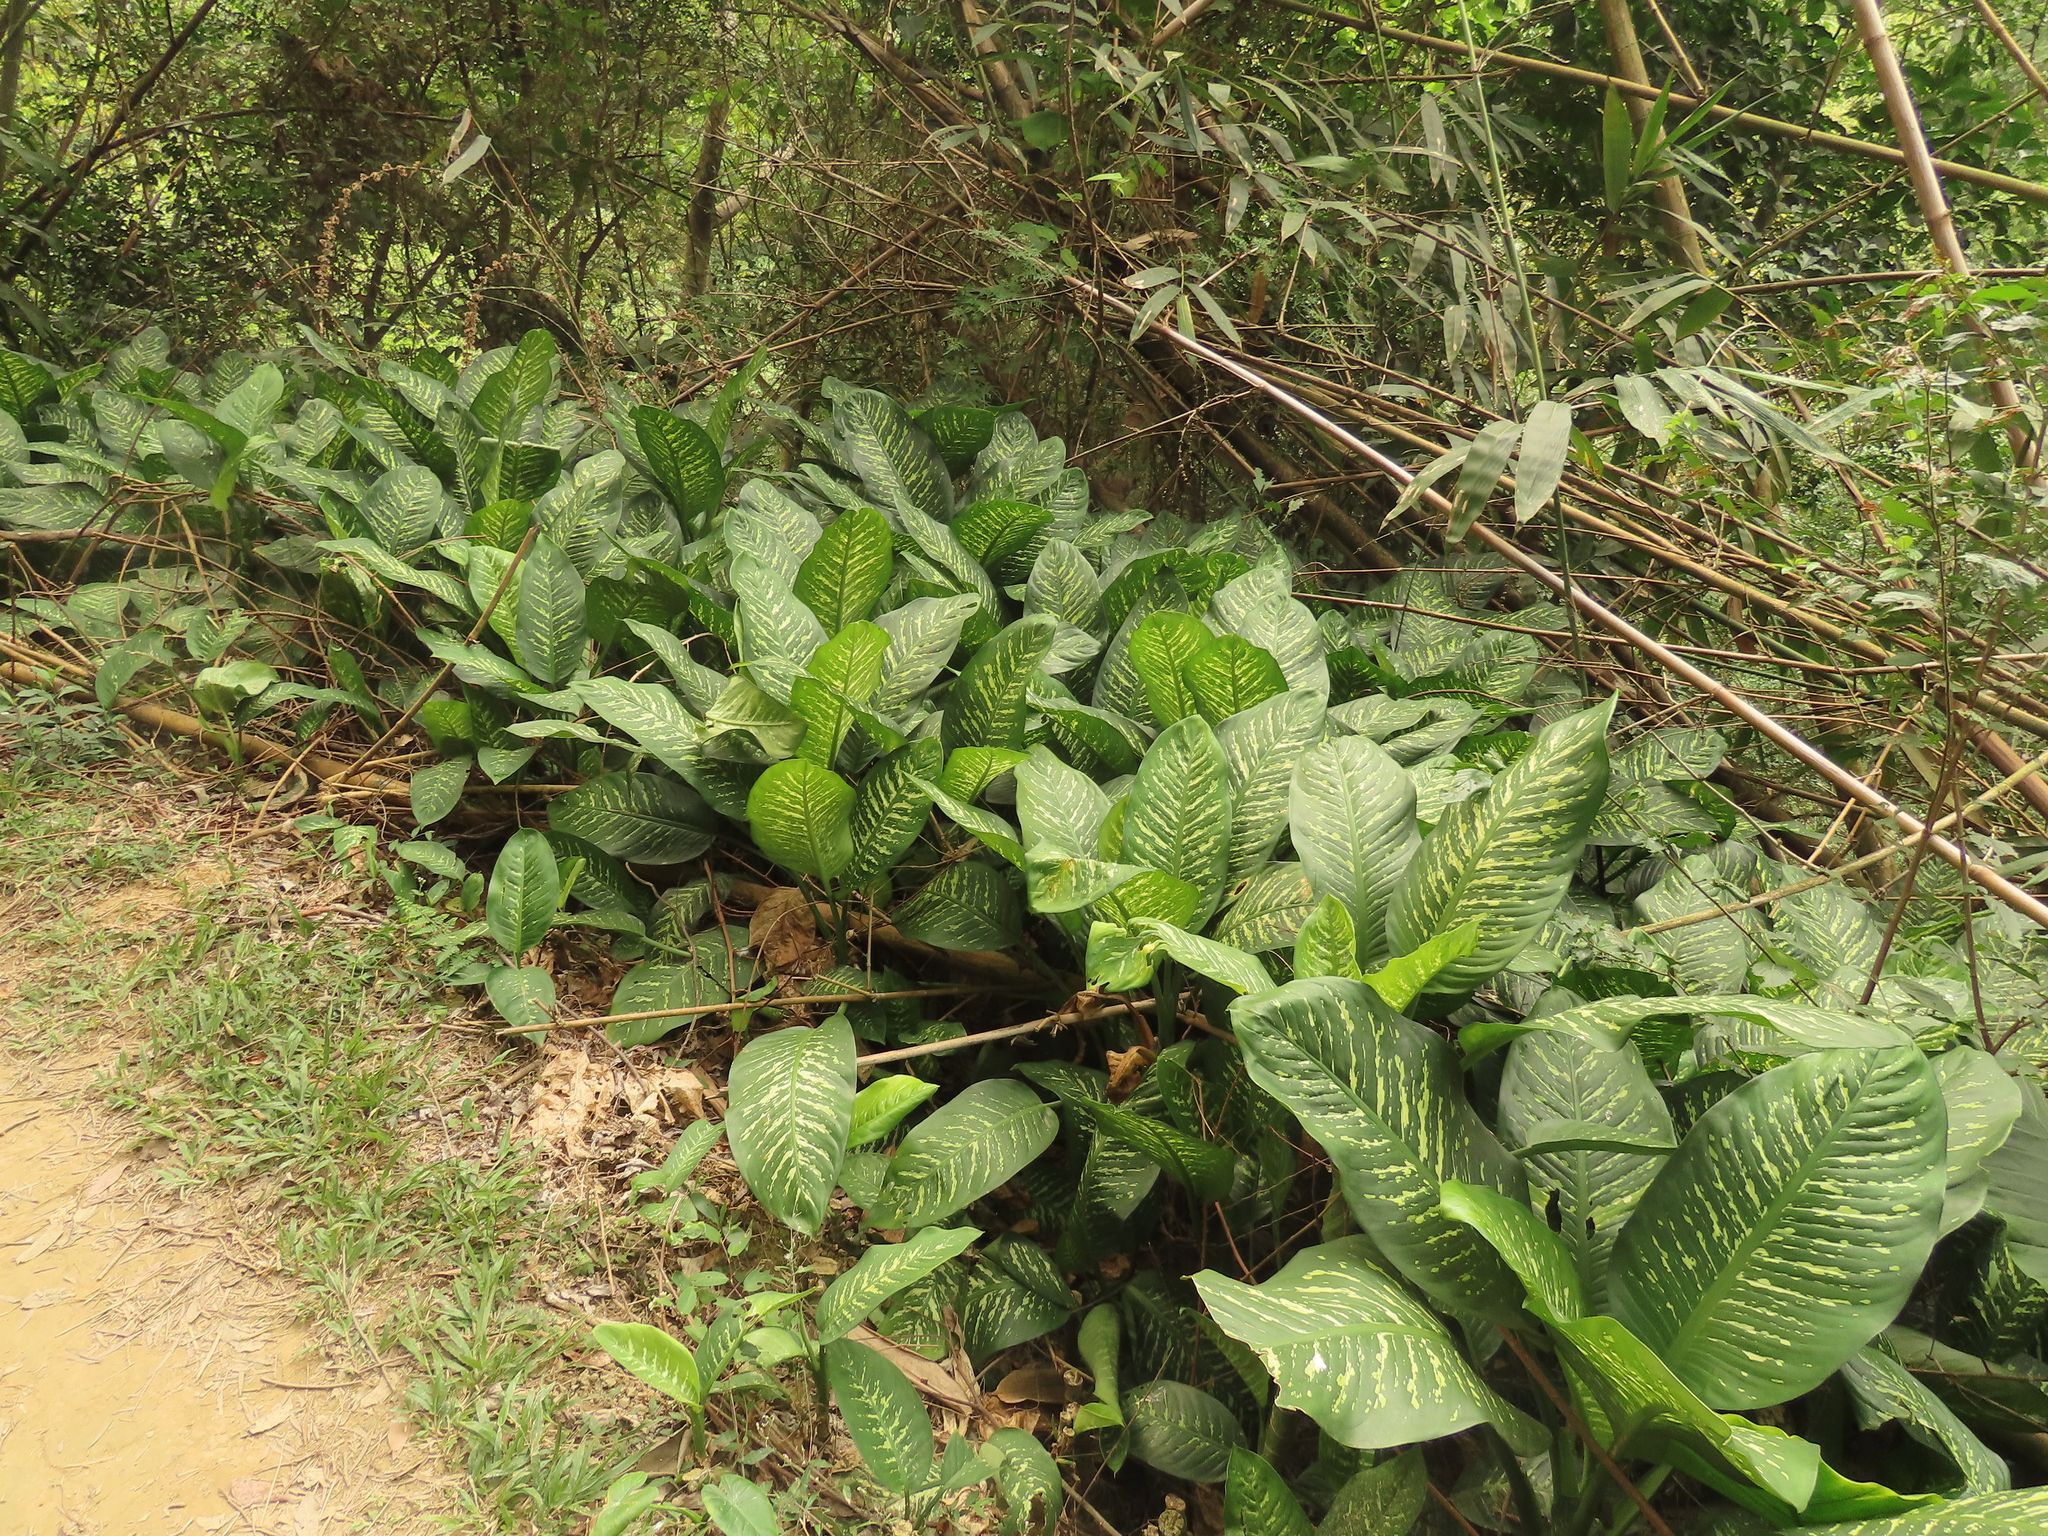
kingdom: Plantae
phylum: Tracheophyta
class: Liliopsida
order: Alismatales
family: Araceae
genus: Dieffenbachia
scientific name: Dieffenbachia seguine
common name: Dumbcane
